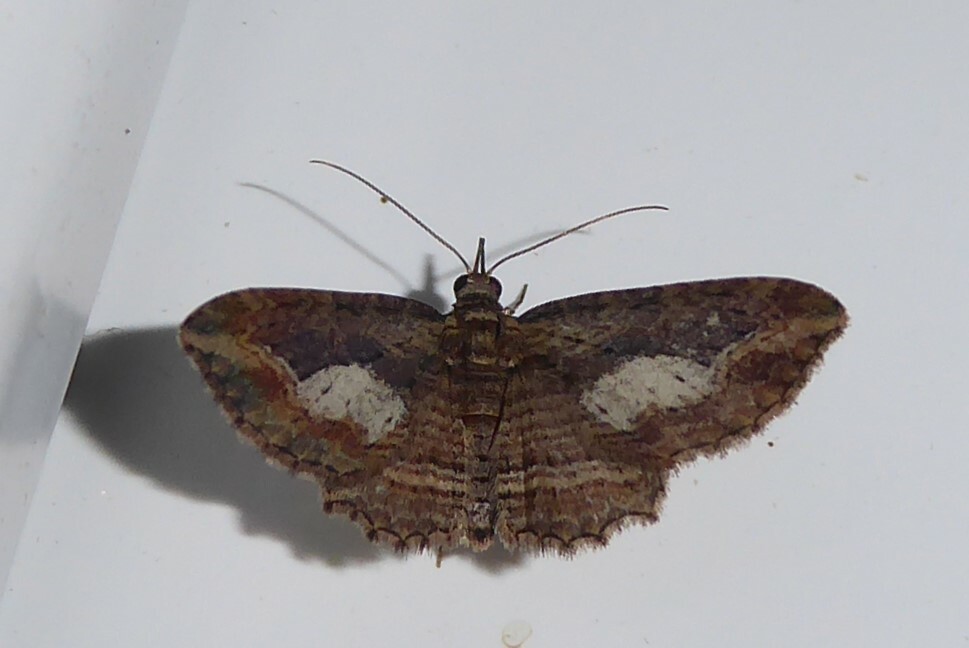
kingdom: Animalia
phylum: Arthropoda
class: Insecta
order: Lepidoptera
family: Geometridae
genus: Chloroclystis
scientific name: Chloroclystis filata
